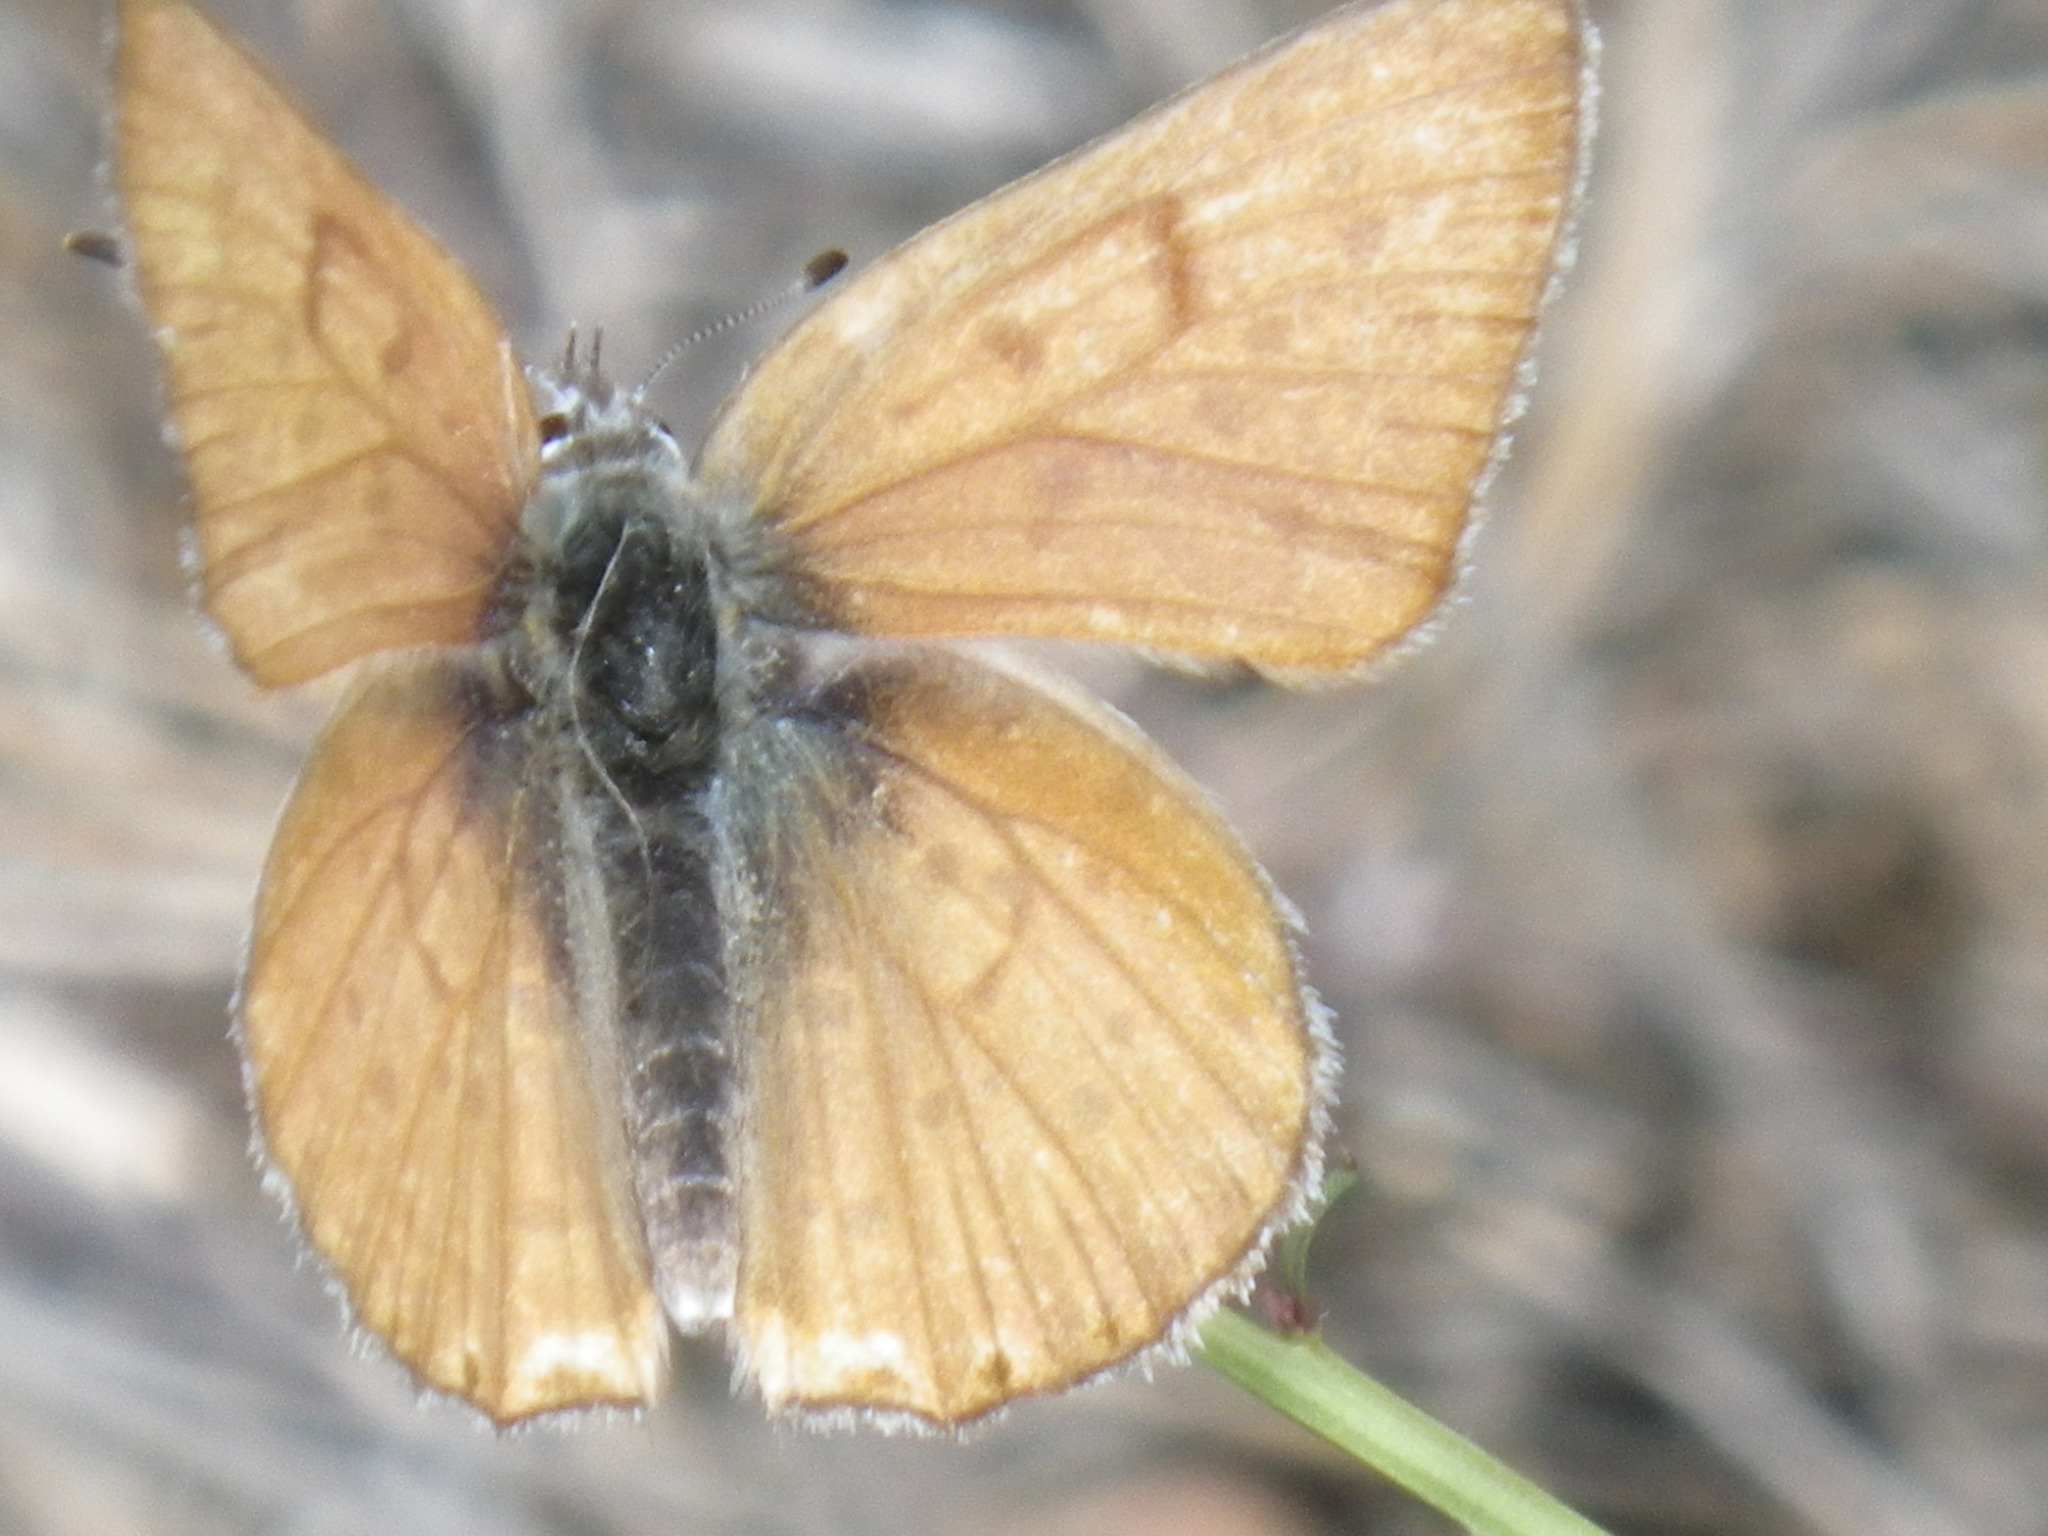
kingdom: Animalia
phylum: Arthropoda
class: Insecta
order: Lepidoptera
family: Lycaenidae
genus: Tharsalea
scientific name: Tharsalea gorgon
